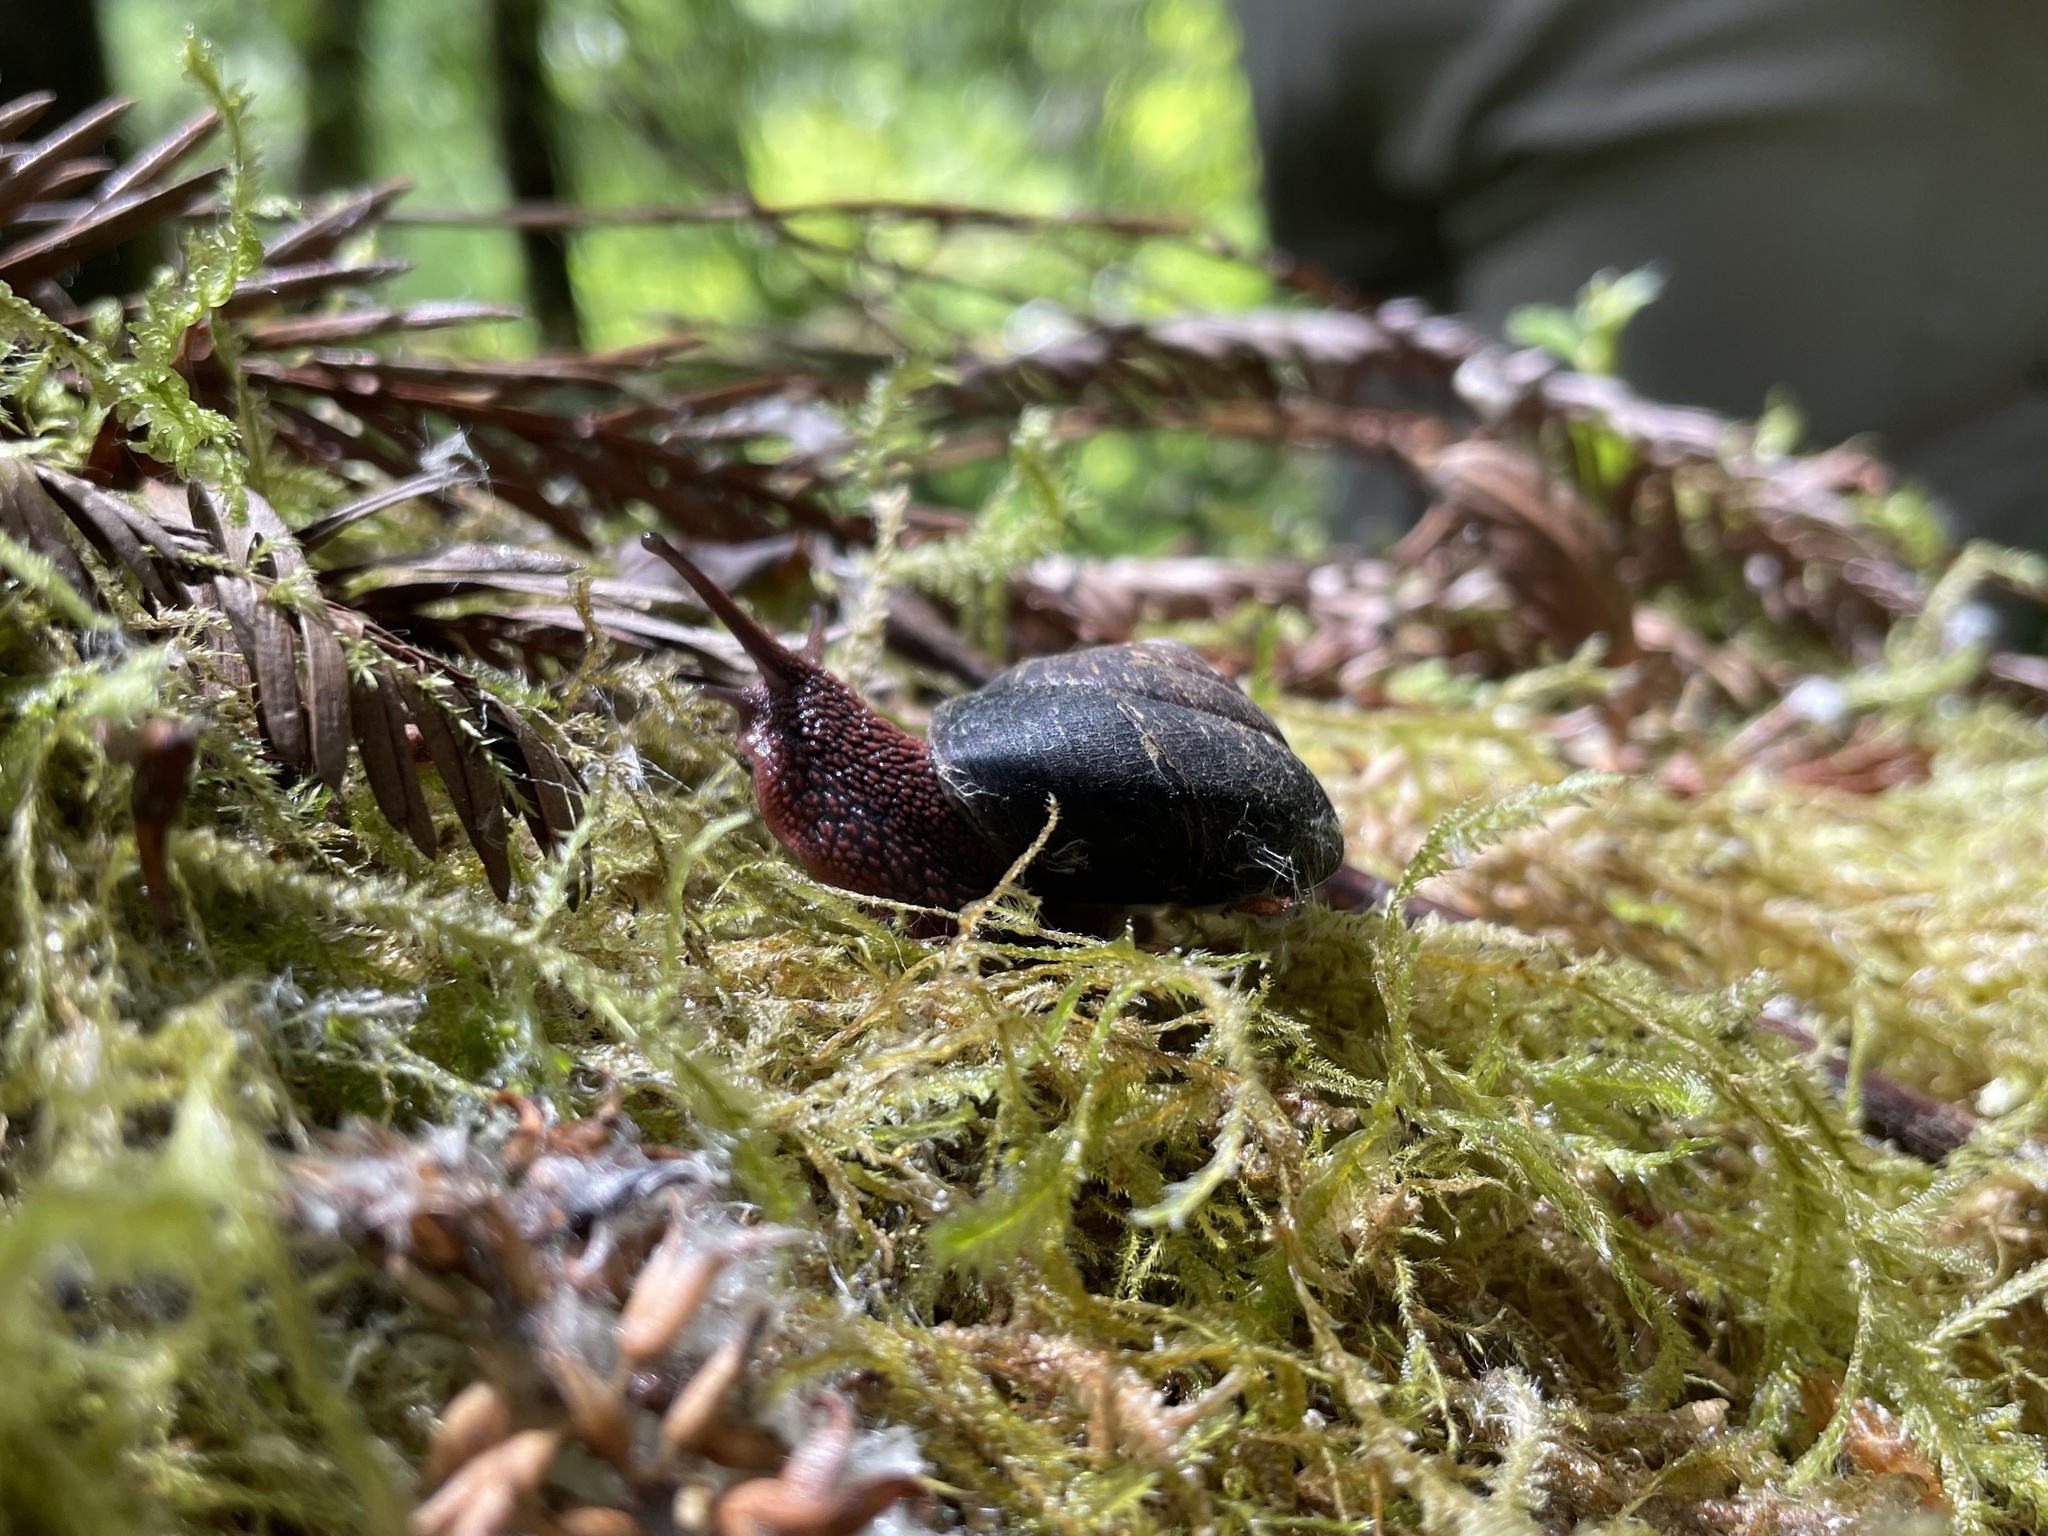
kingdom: Animalia
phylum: Mollusca
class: Gastropoda
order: Stylommatophora
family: Xanthonychidae
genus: Monadenia
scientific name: Monadenia infumata
